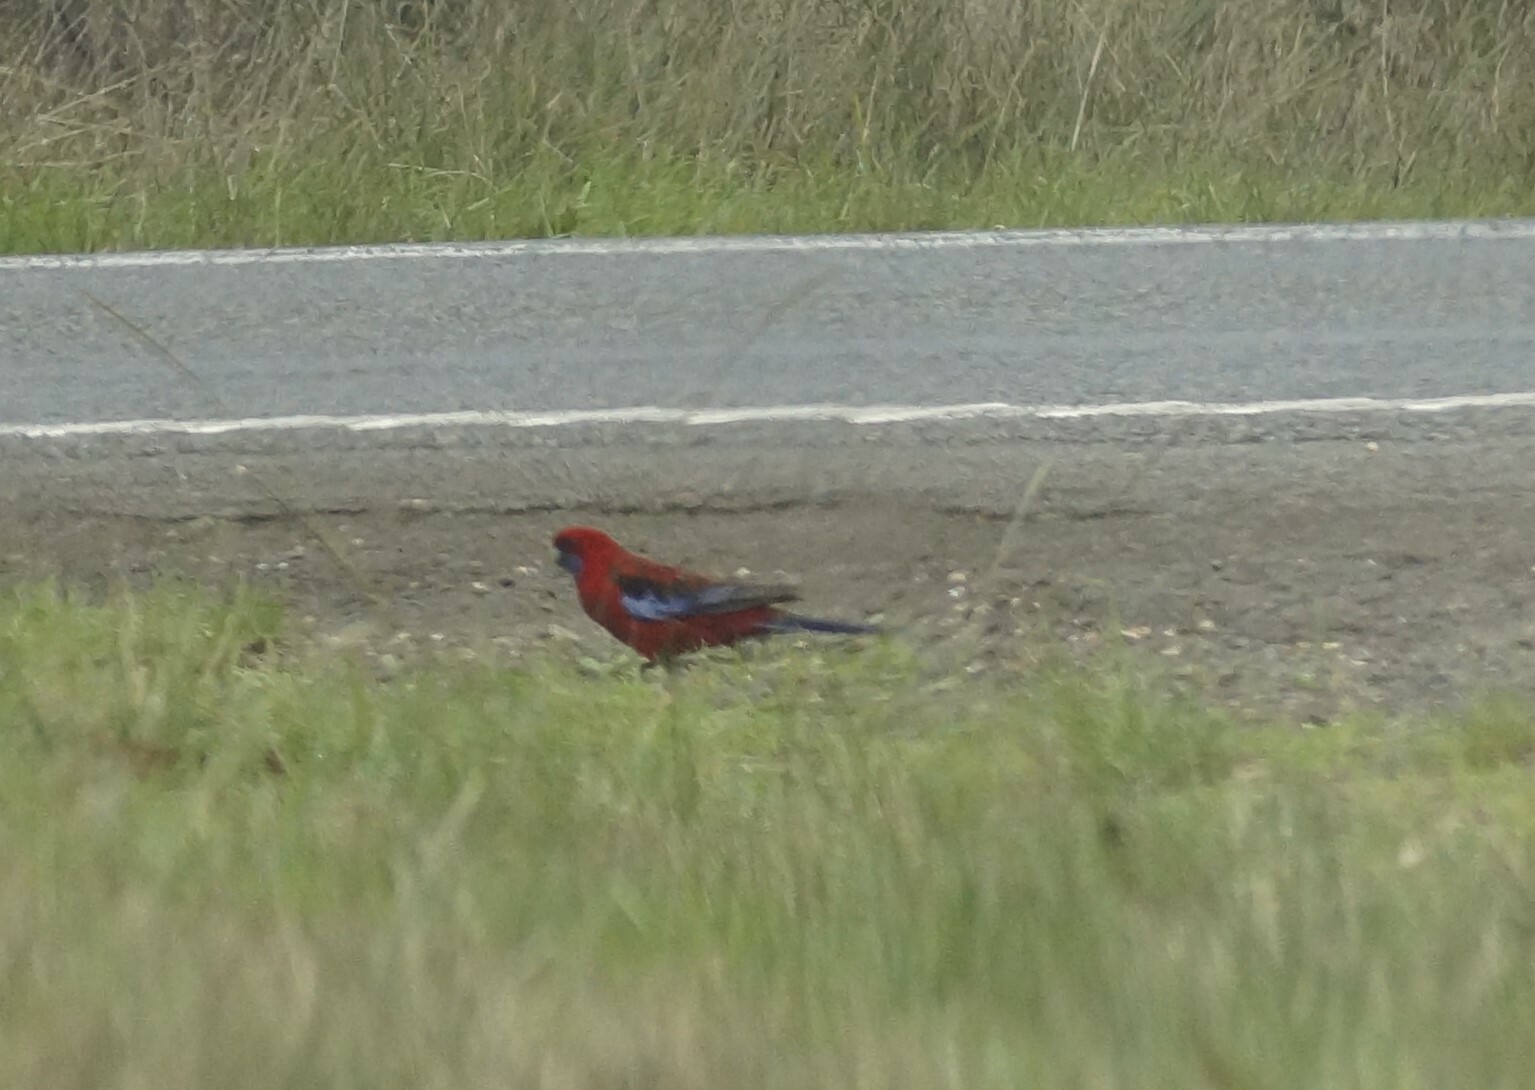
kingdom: Animalia
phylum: Chordata
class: Aves
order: Psittaciformes
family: Psittacidae
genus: Platycercus
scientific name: Platycercus elegans
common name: Crimson rosella
